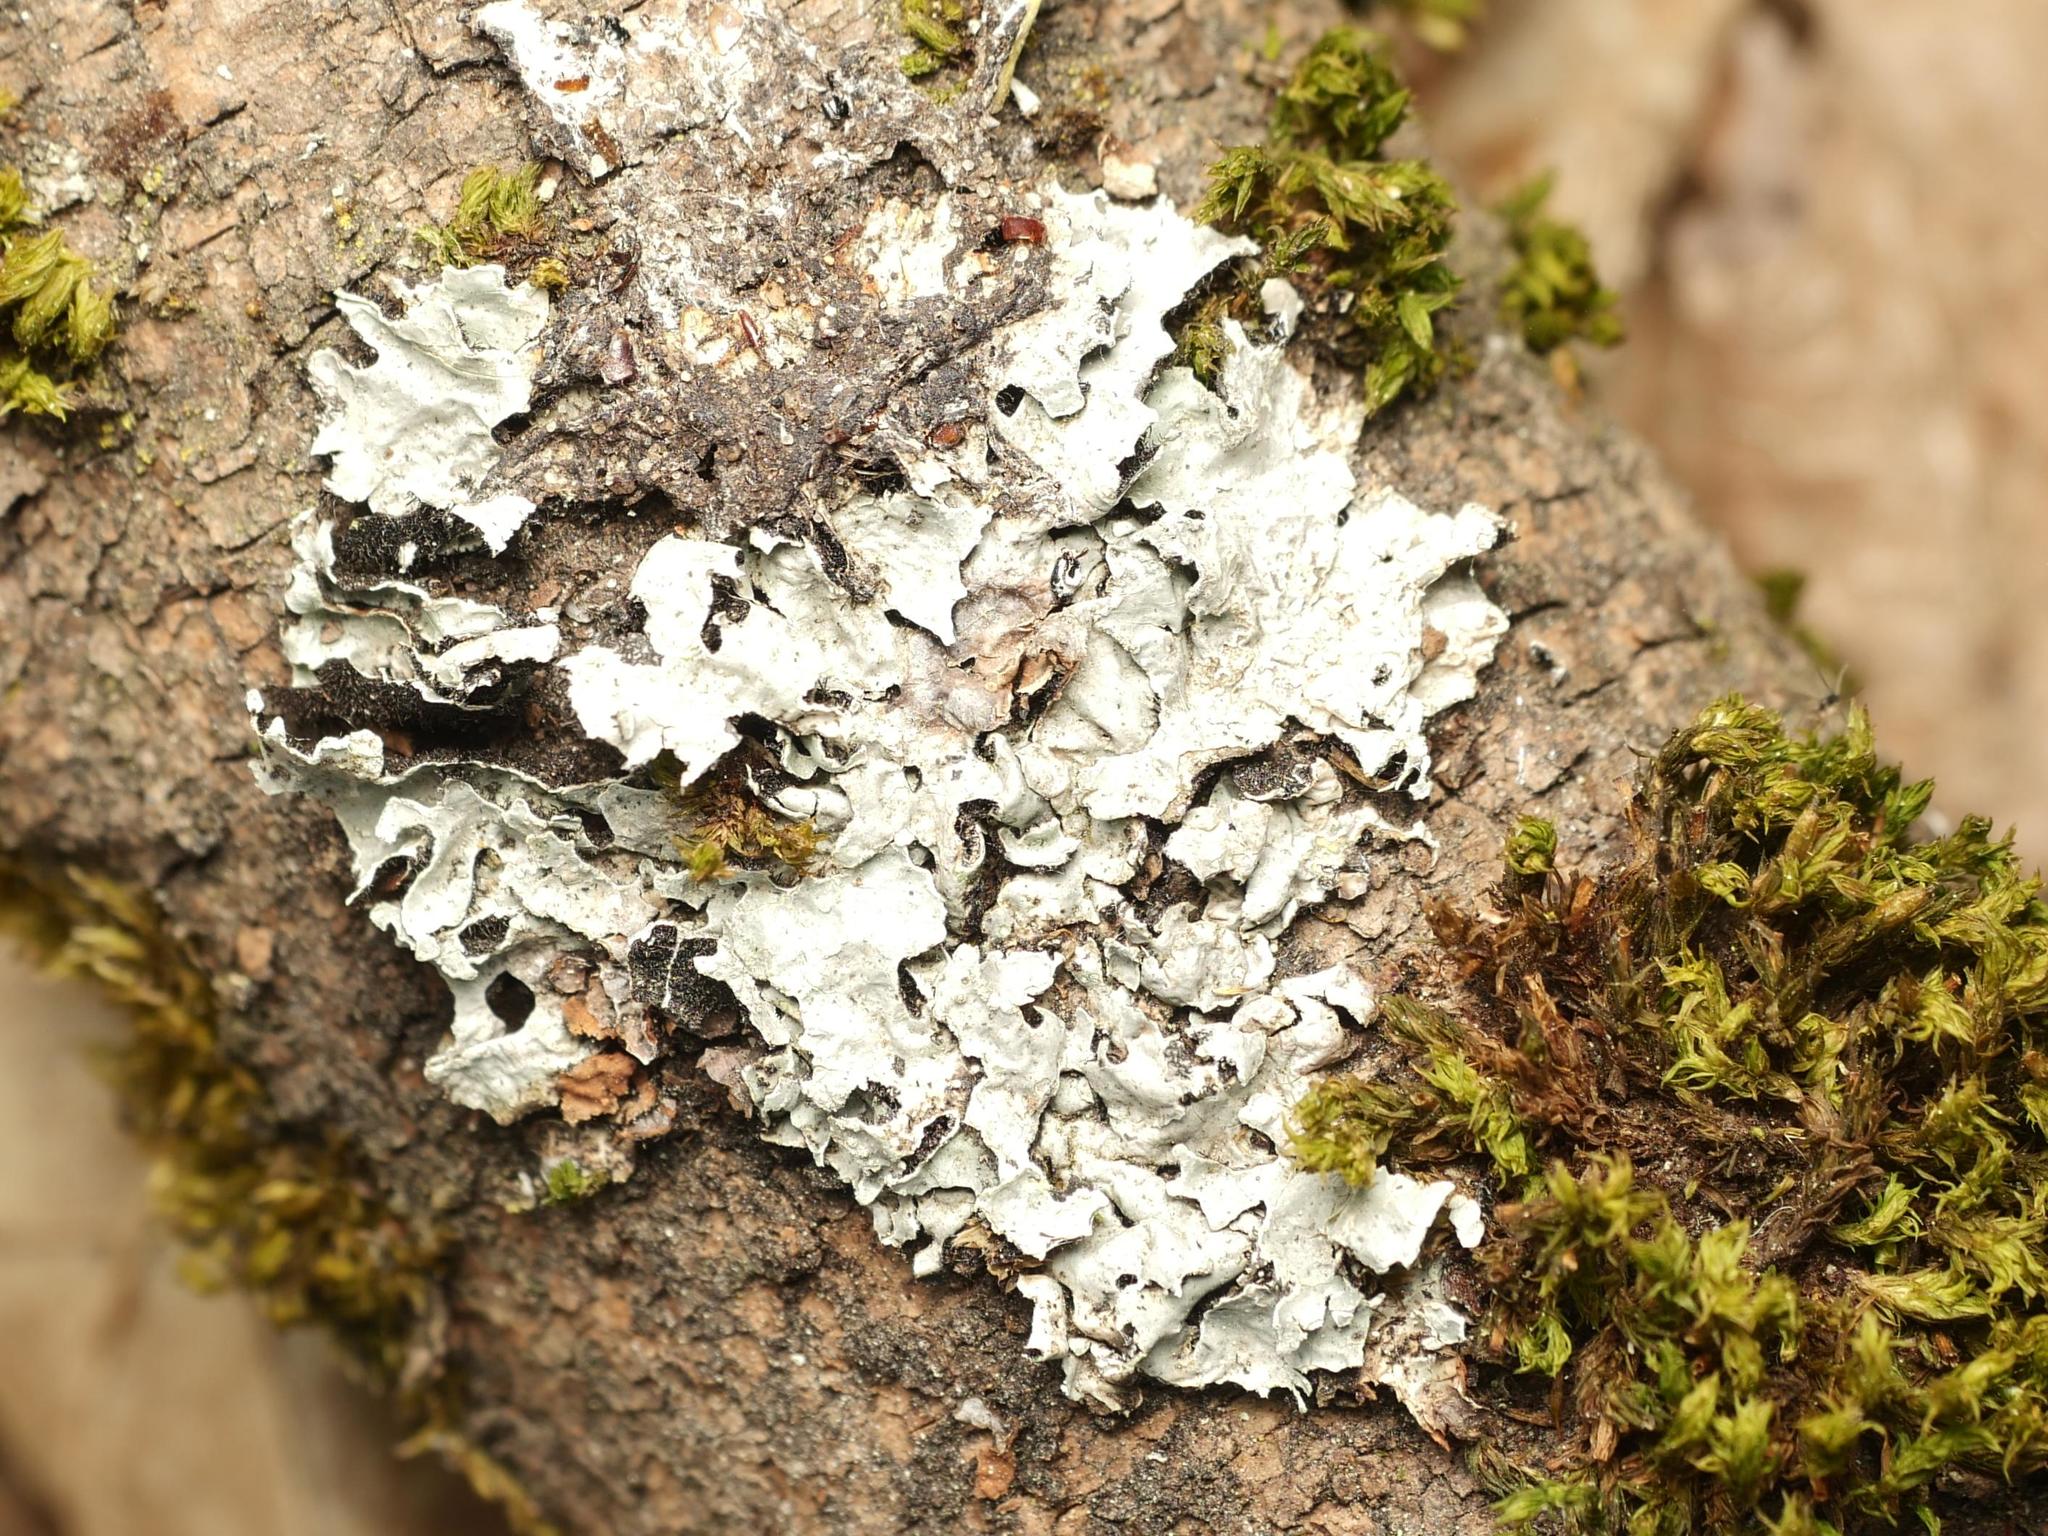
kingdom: Fungi
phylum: Ascomycota
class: Lecanoromycetes
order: Lecanorales
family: Parmeliaceae
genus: Parmelia
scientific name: Parmelia sulcata
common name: Netted shield lichen
